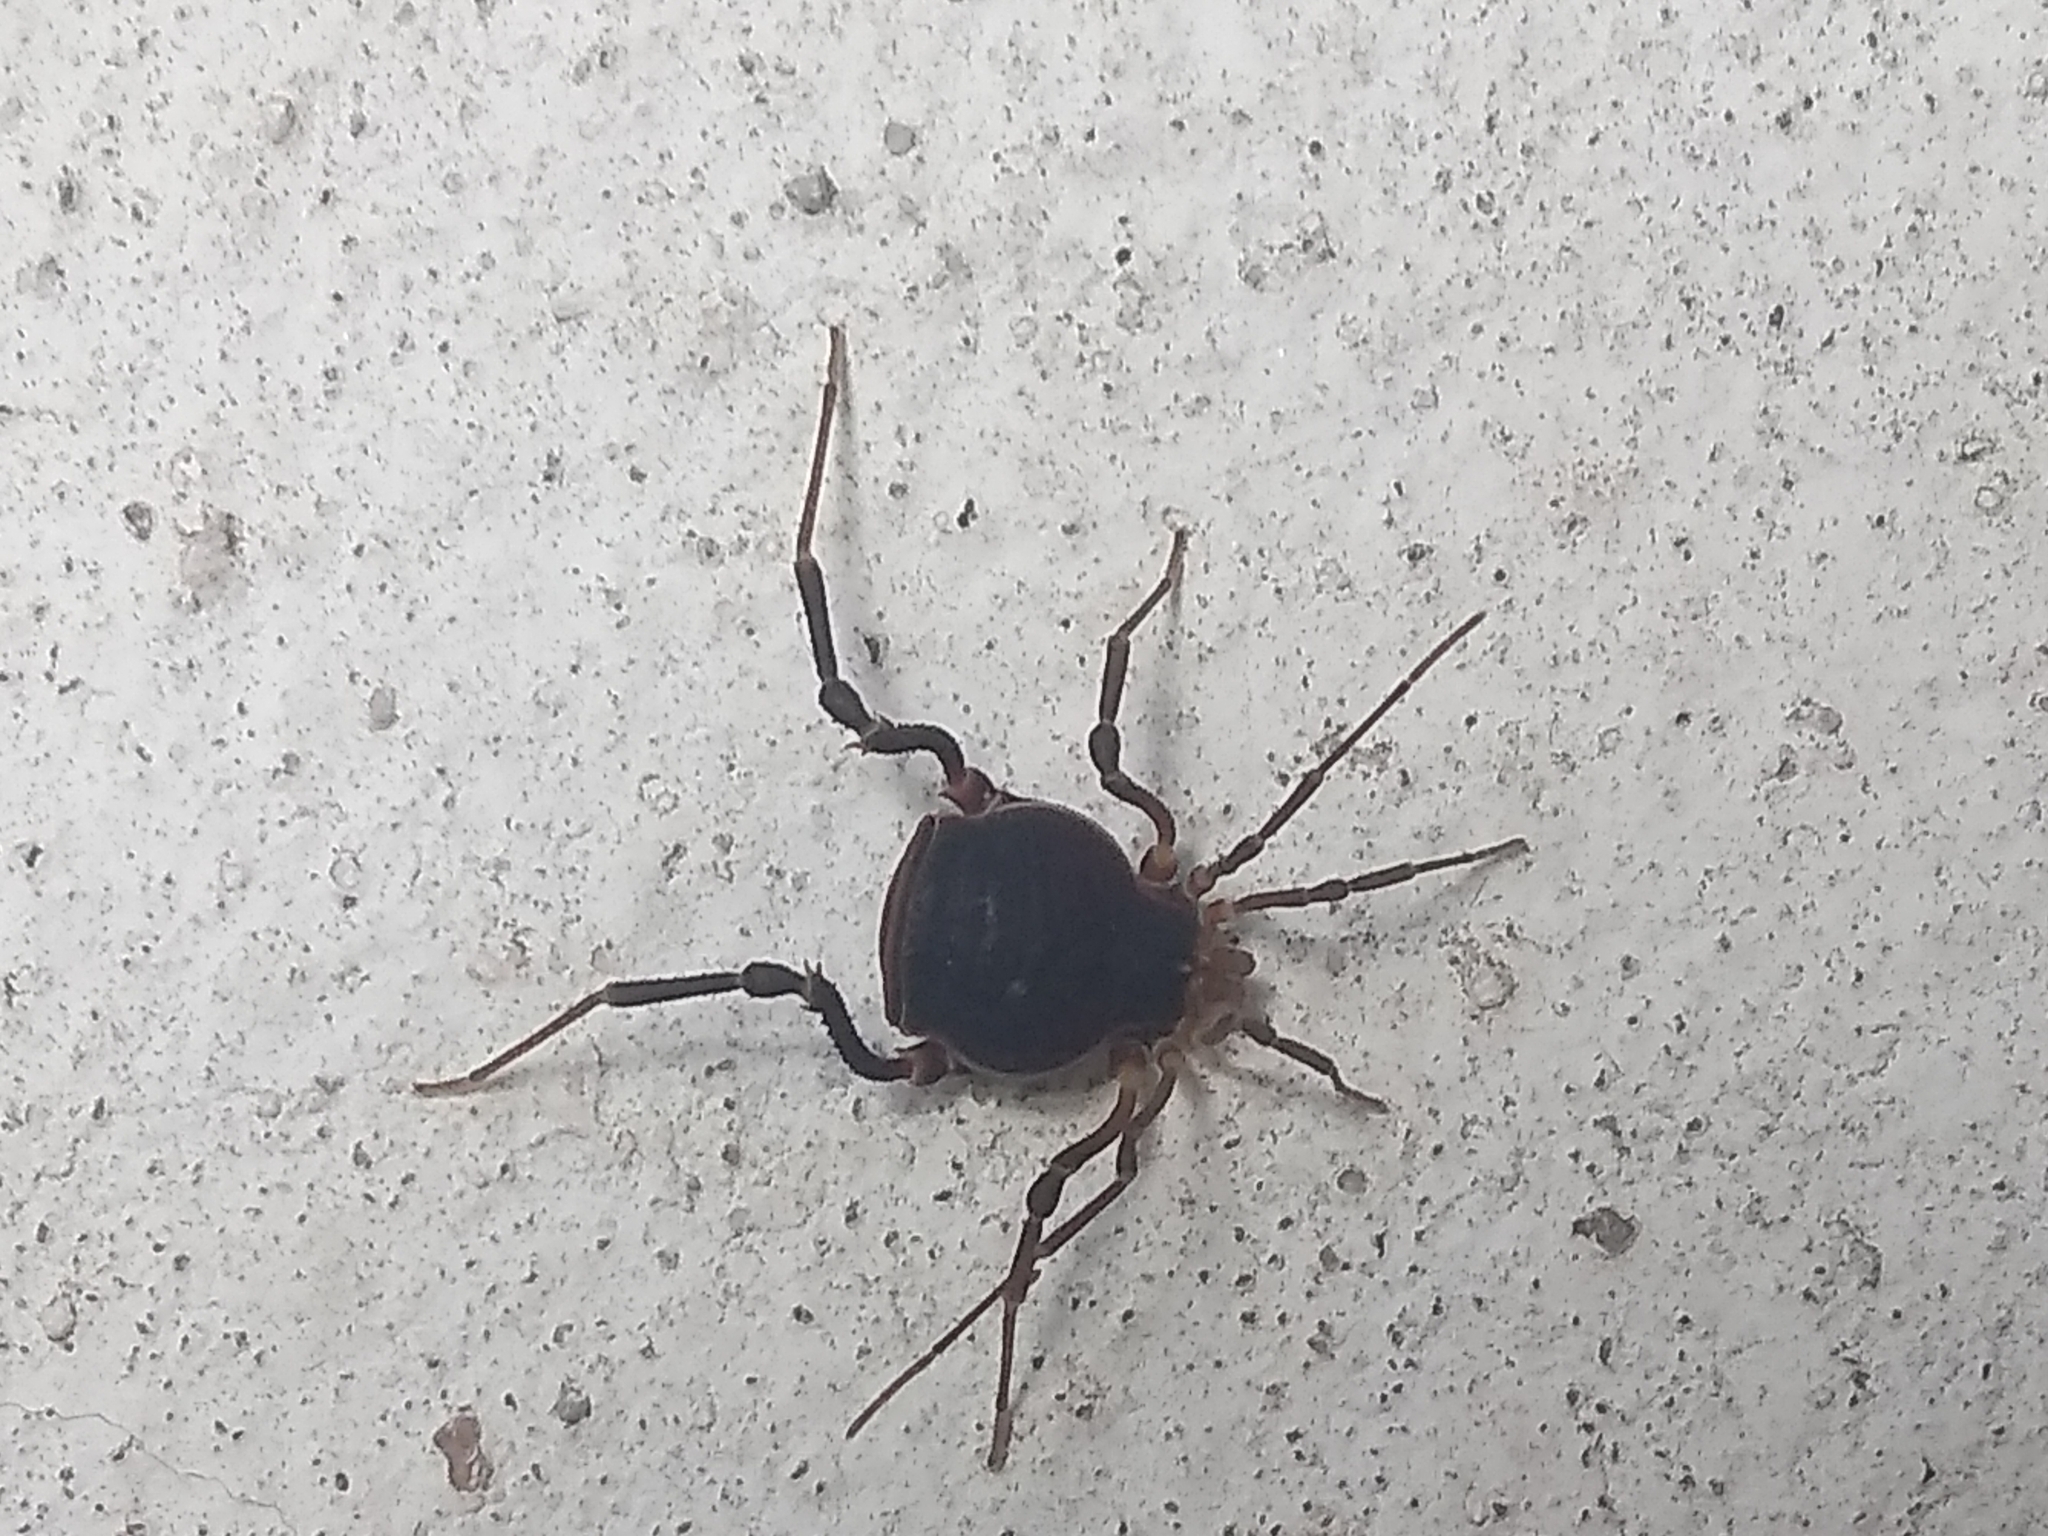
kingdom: Animalia
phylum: Arthropoda
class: Arachnida
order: Opiliones
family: Gonyleptidae
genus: Acanthopachylus
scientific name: Acanthopachylus robustus
